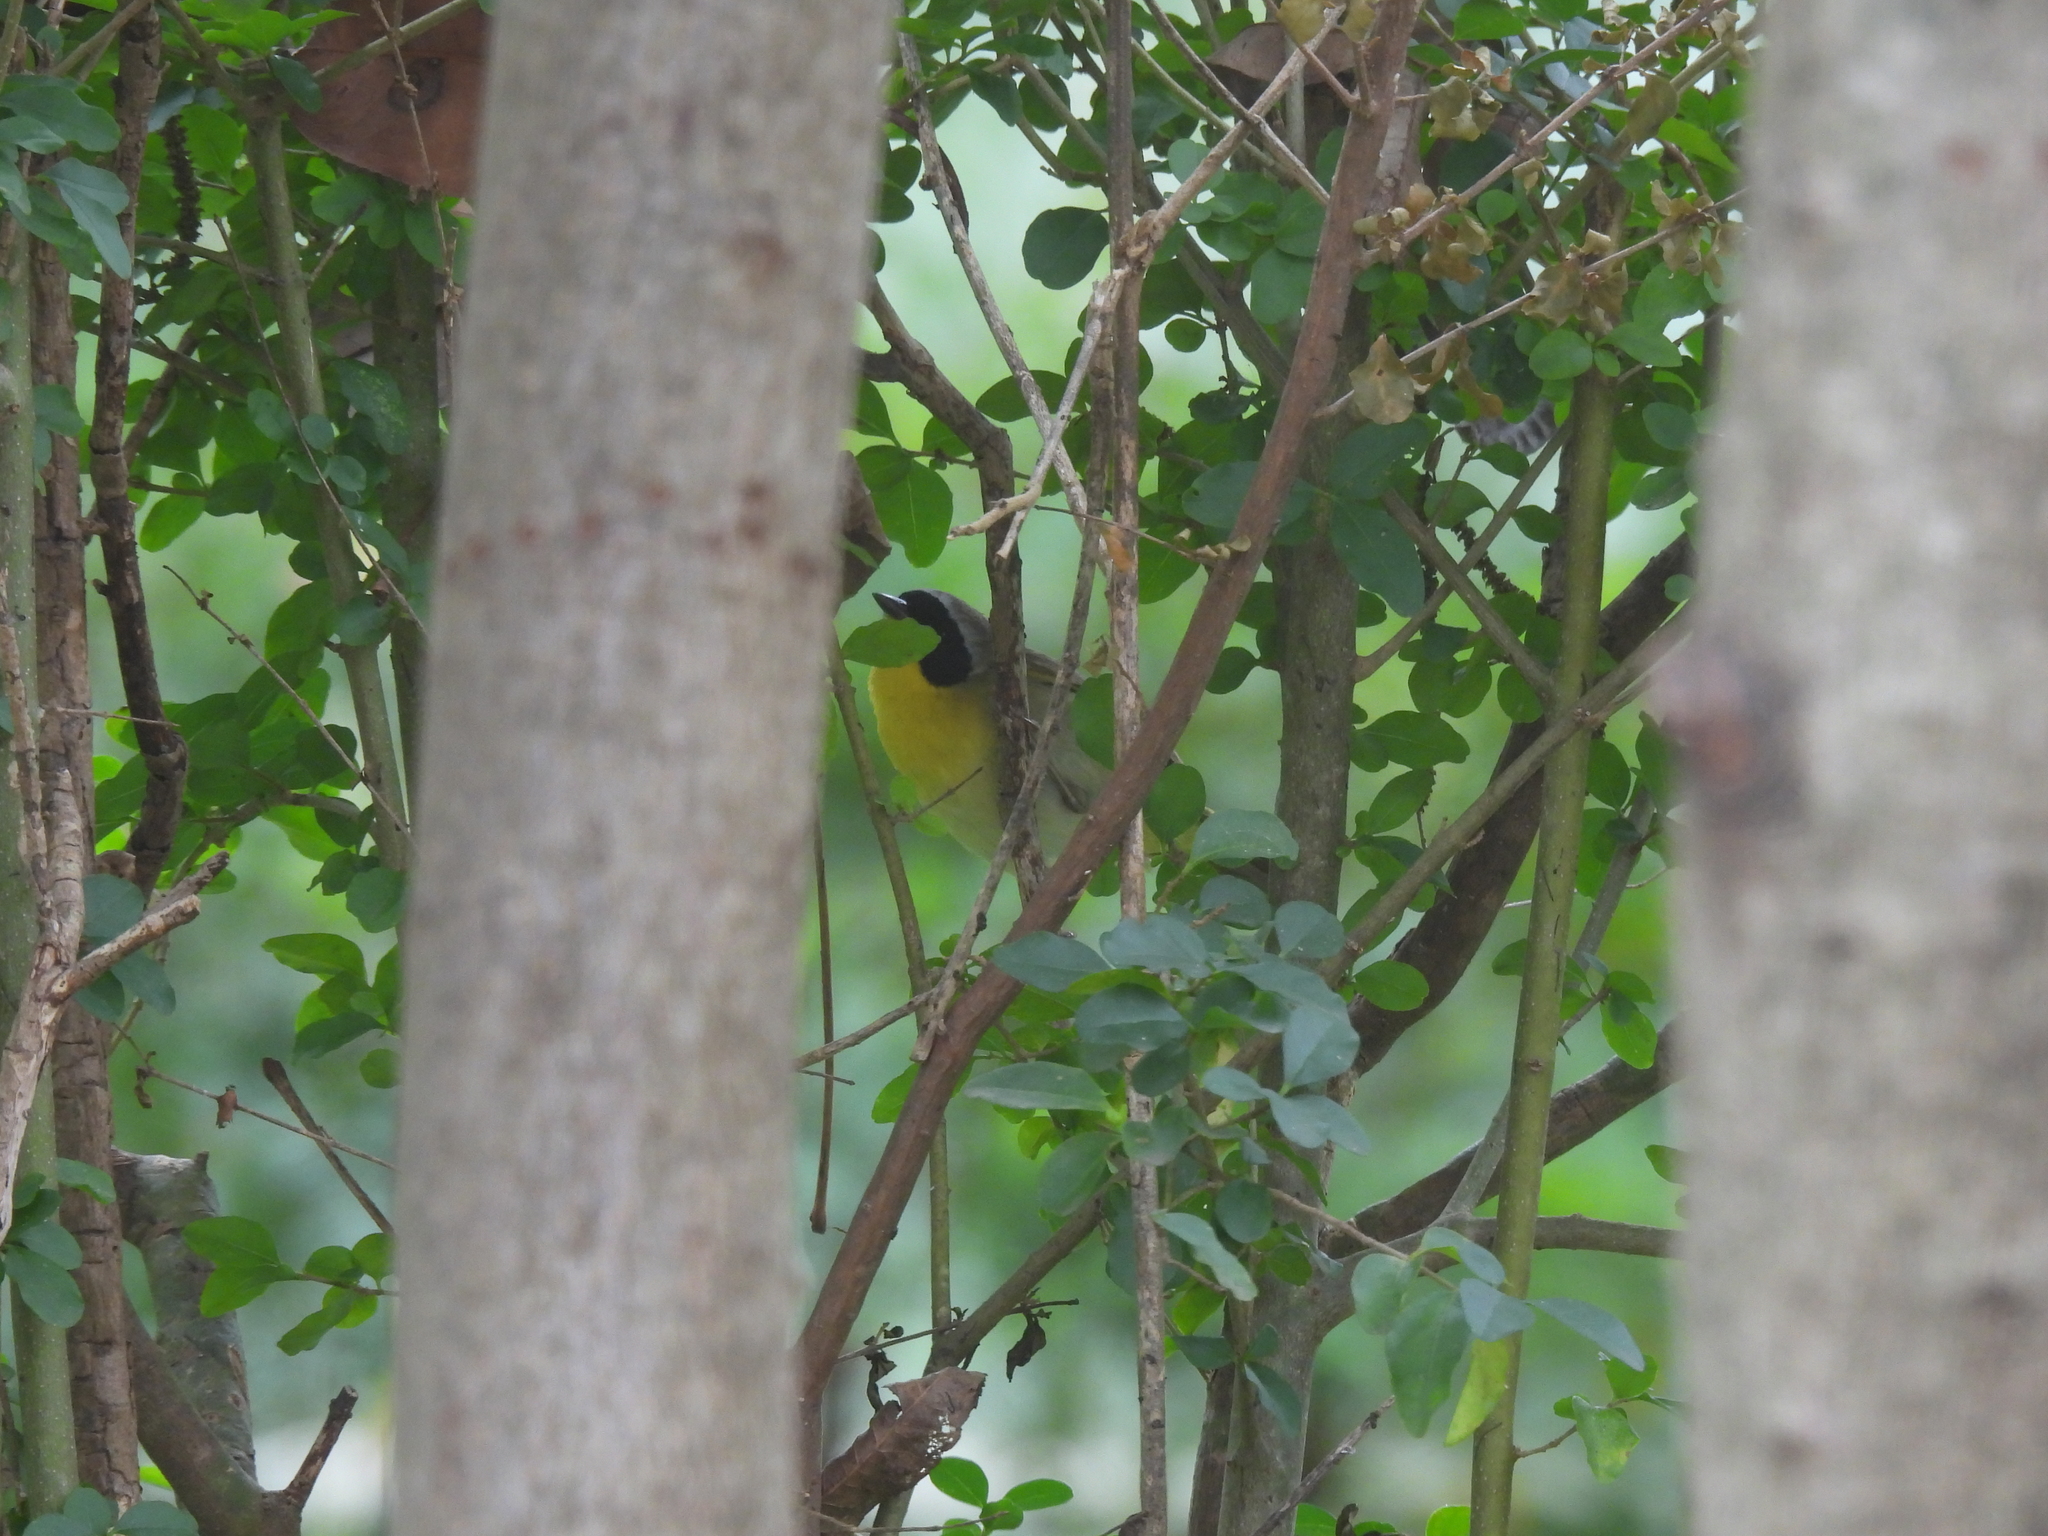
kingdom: Animalia
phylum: Chordata
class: Aves
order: Passeriformes
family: Parulidae
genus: Geothlypis
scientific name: Geothlypis trichas
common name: Common yellowthroat
